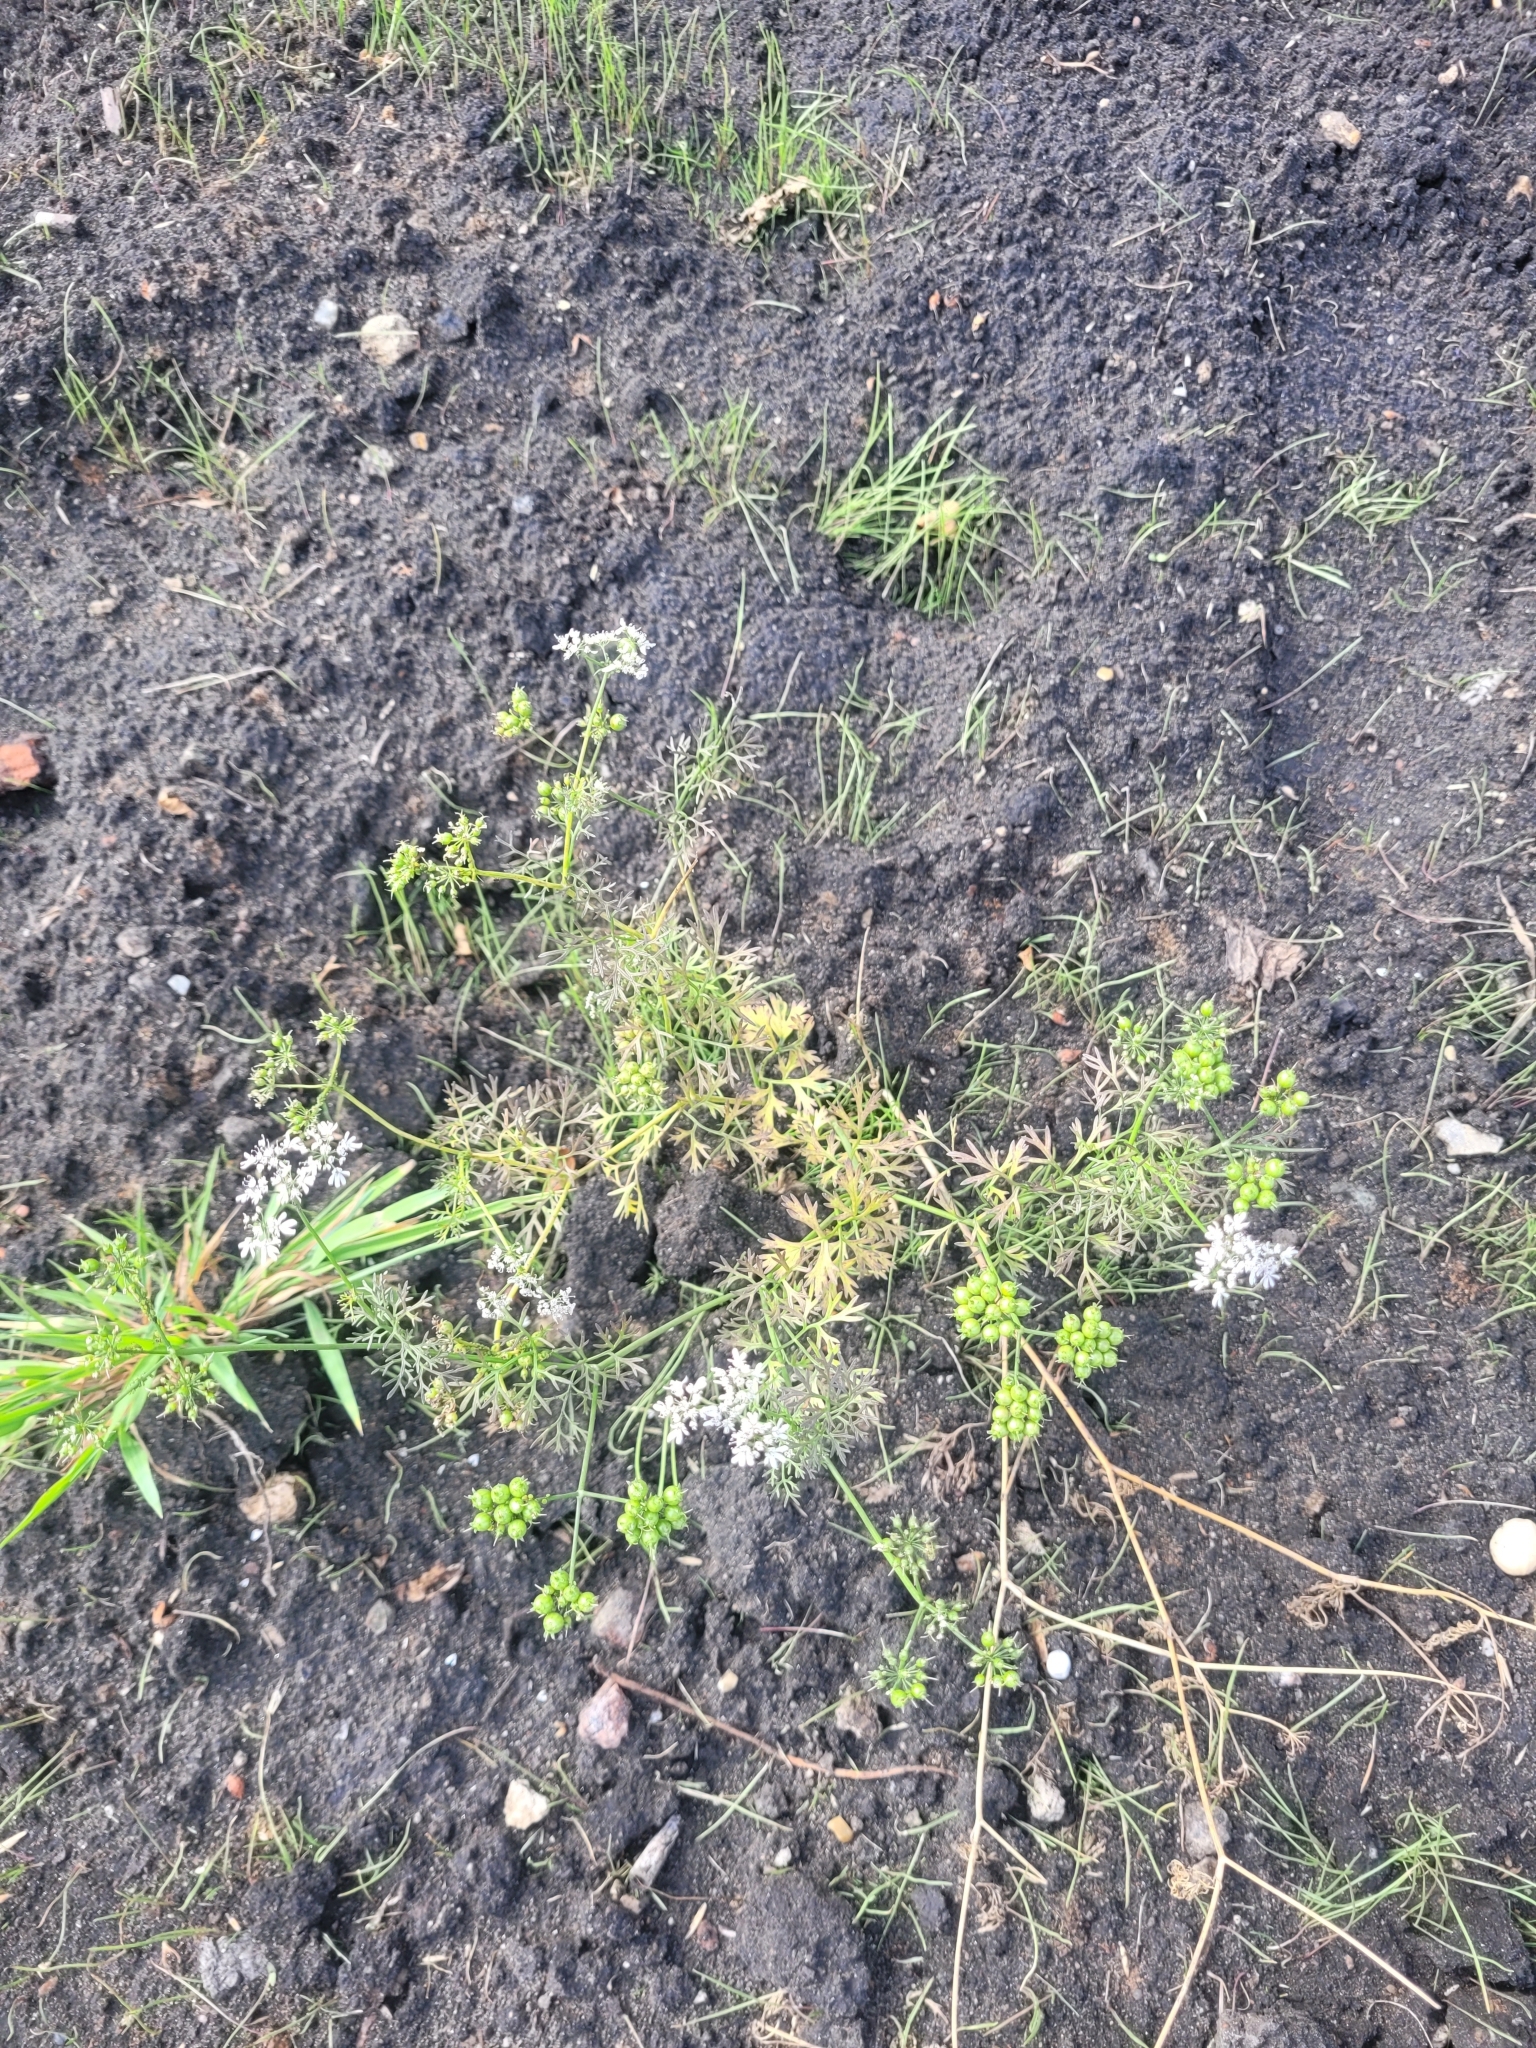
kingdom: Plantae
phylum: Tracheophyta
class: Magnoliopsida
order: Apiales
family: Apiaceae
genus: Coriandrum
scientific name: Coriandrum sativum
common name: Coriander
